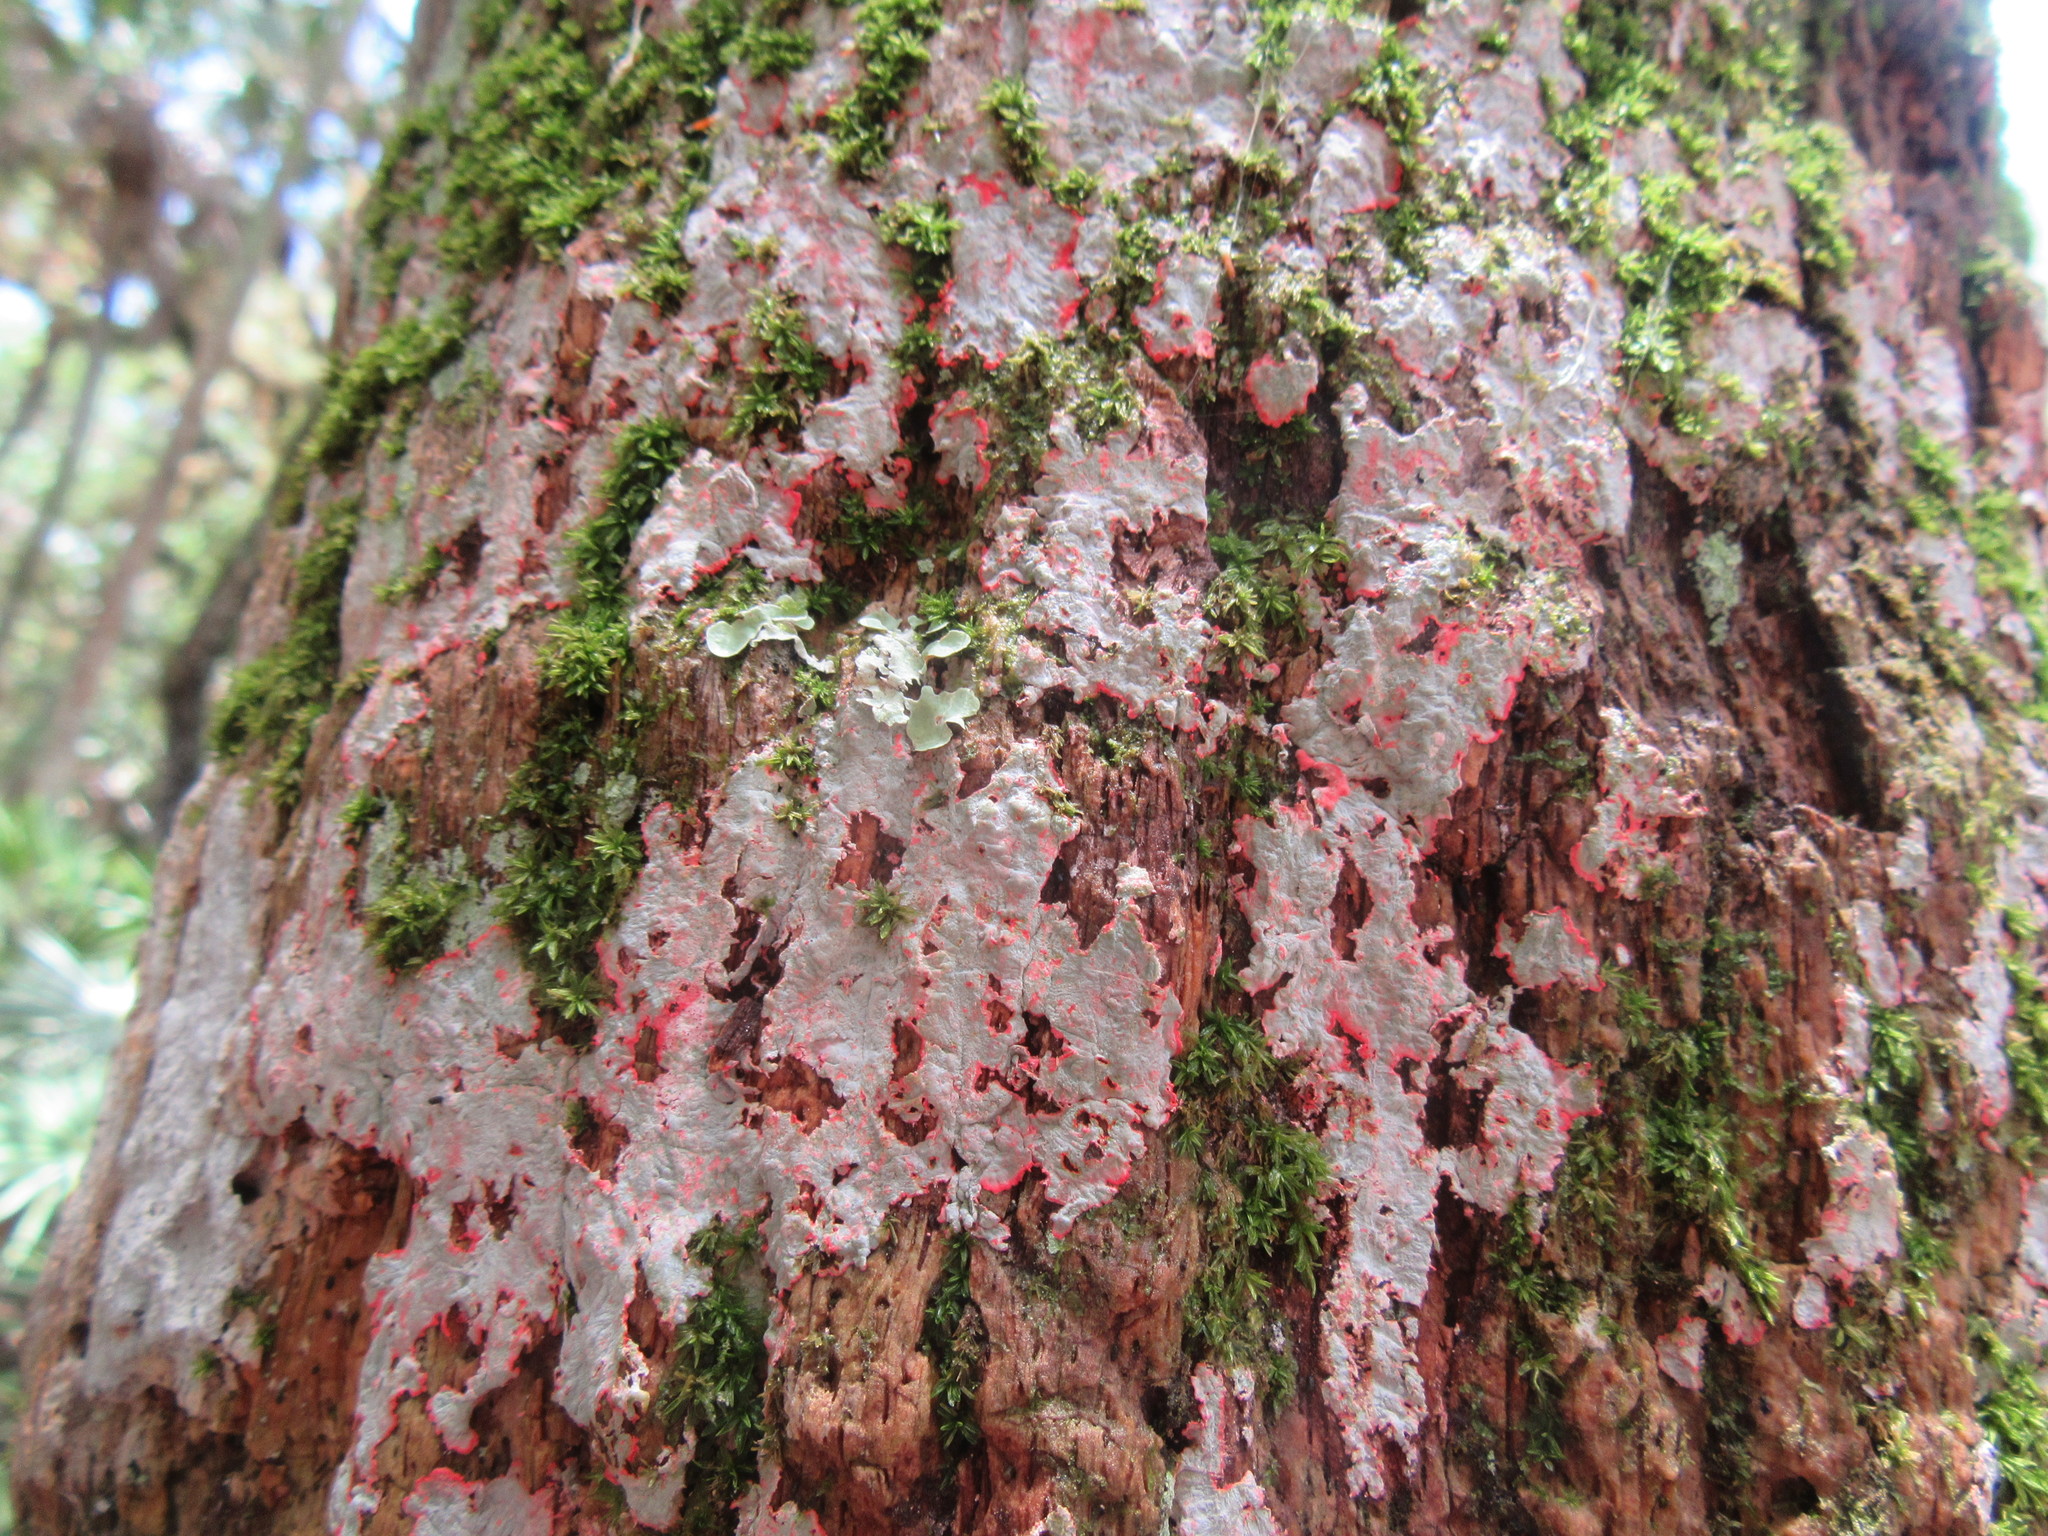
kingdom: Fungi
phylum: Ascomycota
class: Arthoniomycetes
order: Arthoniales
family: Arthoniaceae
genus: Herpothallon
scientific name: Herpothallon rubrocinctum
